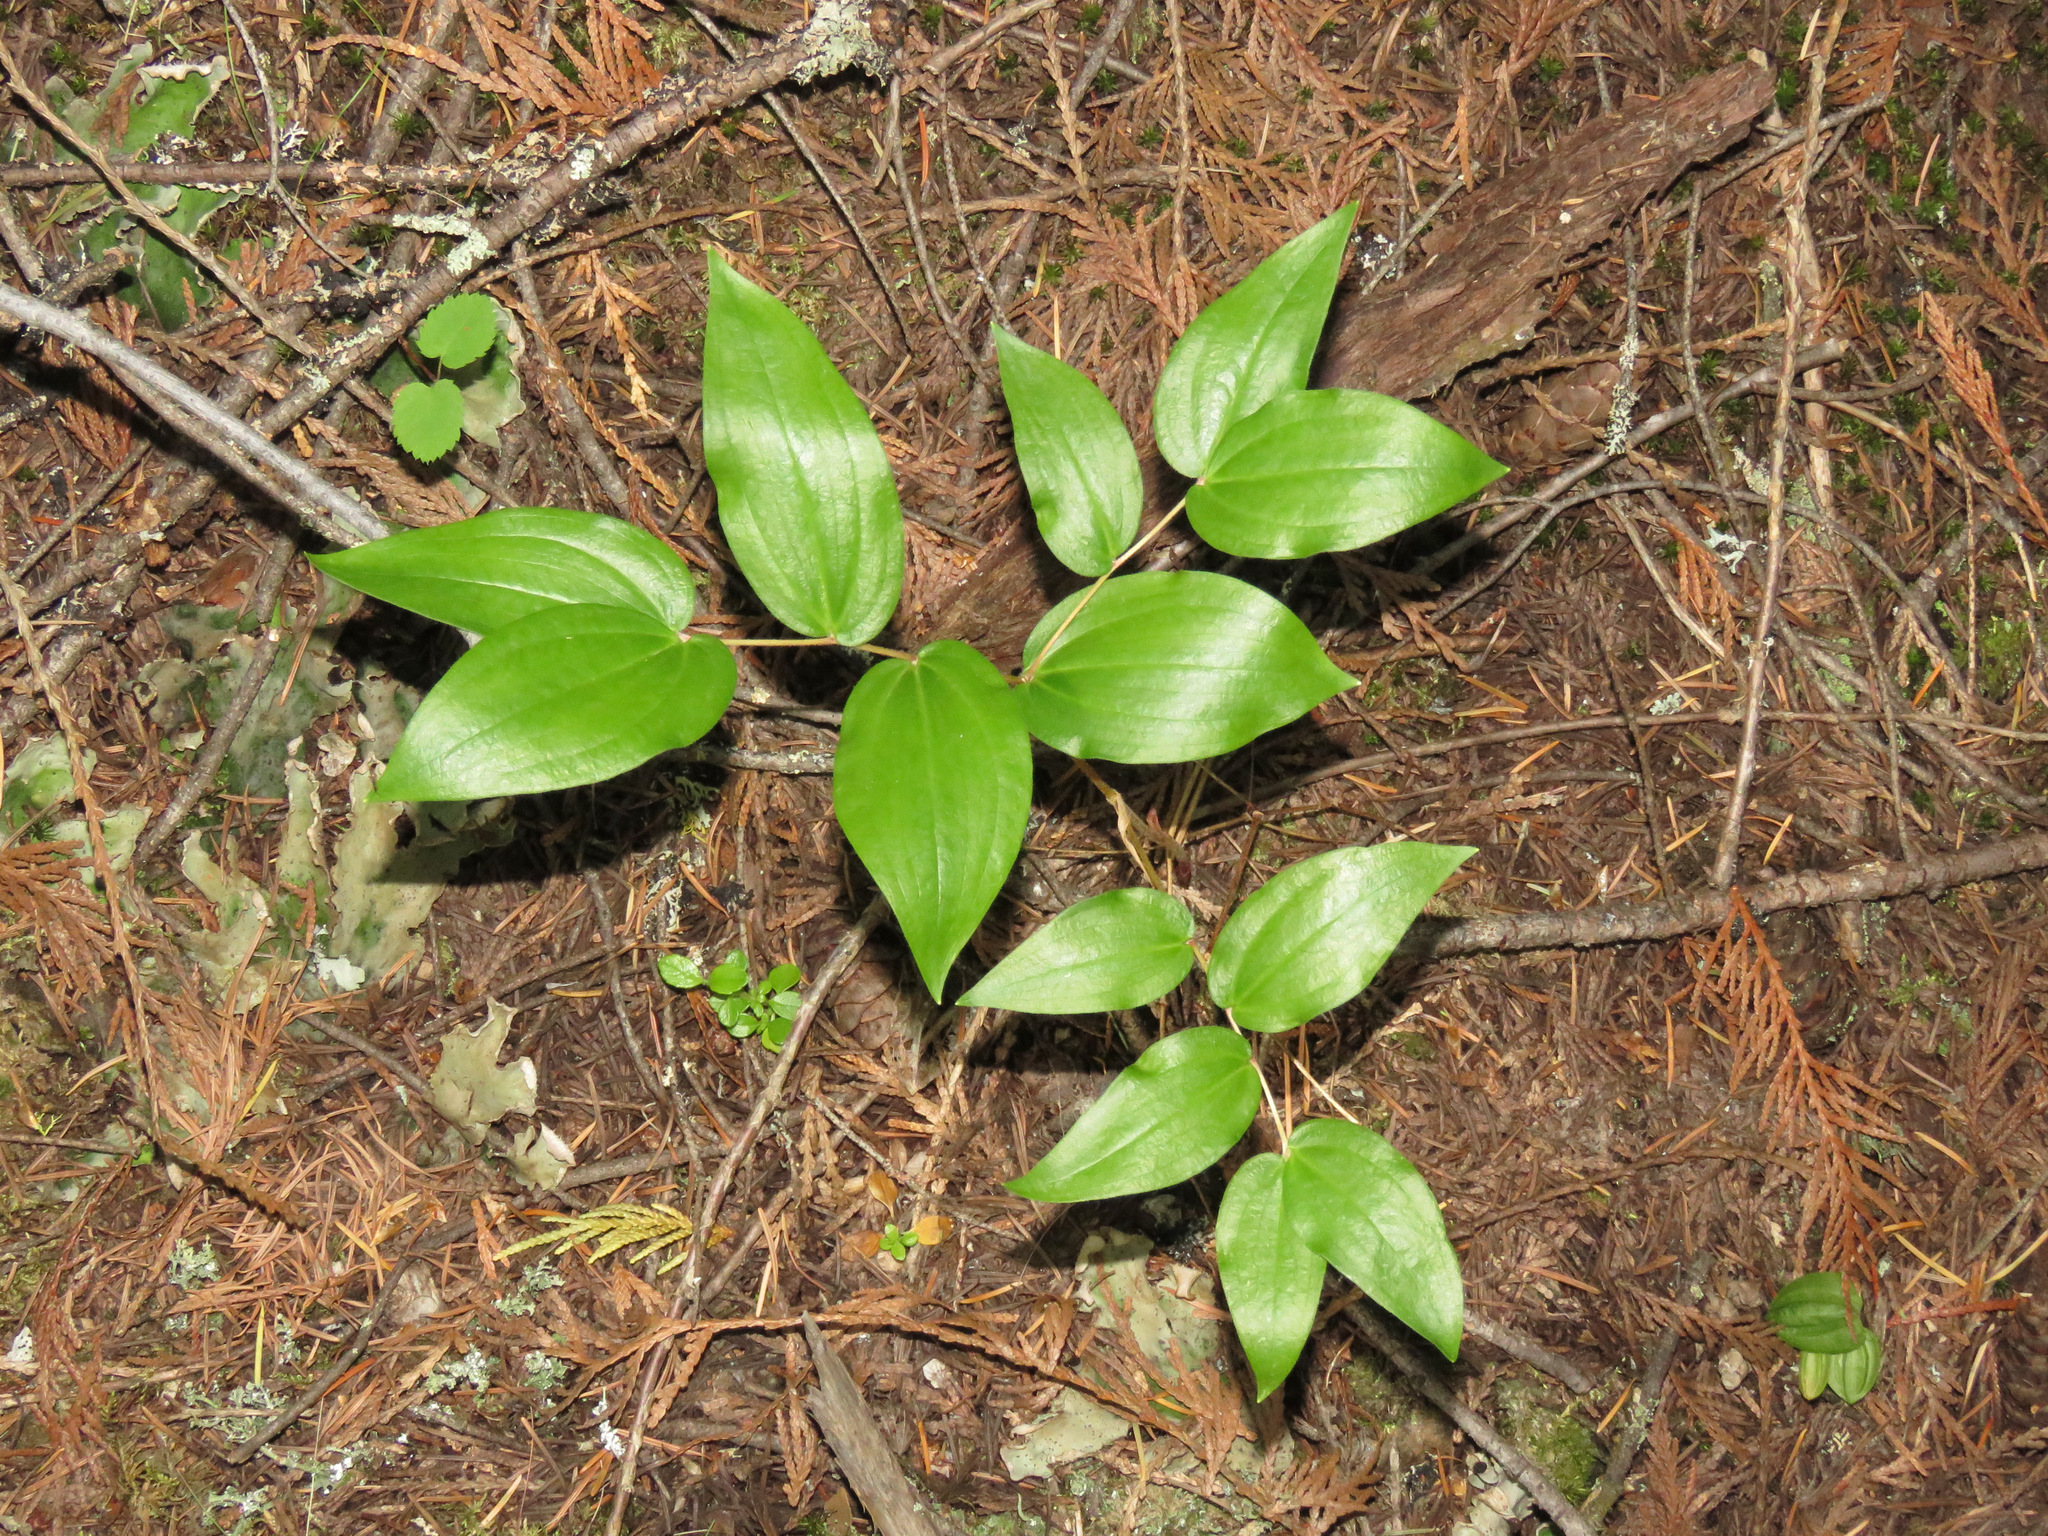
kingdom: Plantae
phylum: Tracheophyta
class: Liliopsida
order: Liliales
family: Liliaceae
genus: Prosartes
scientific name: Prosartes hookeri
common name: Fairy-bells
